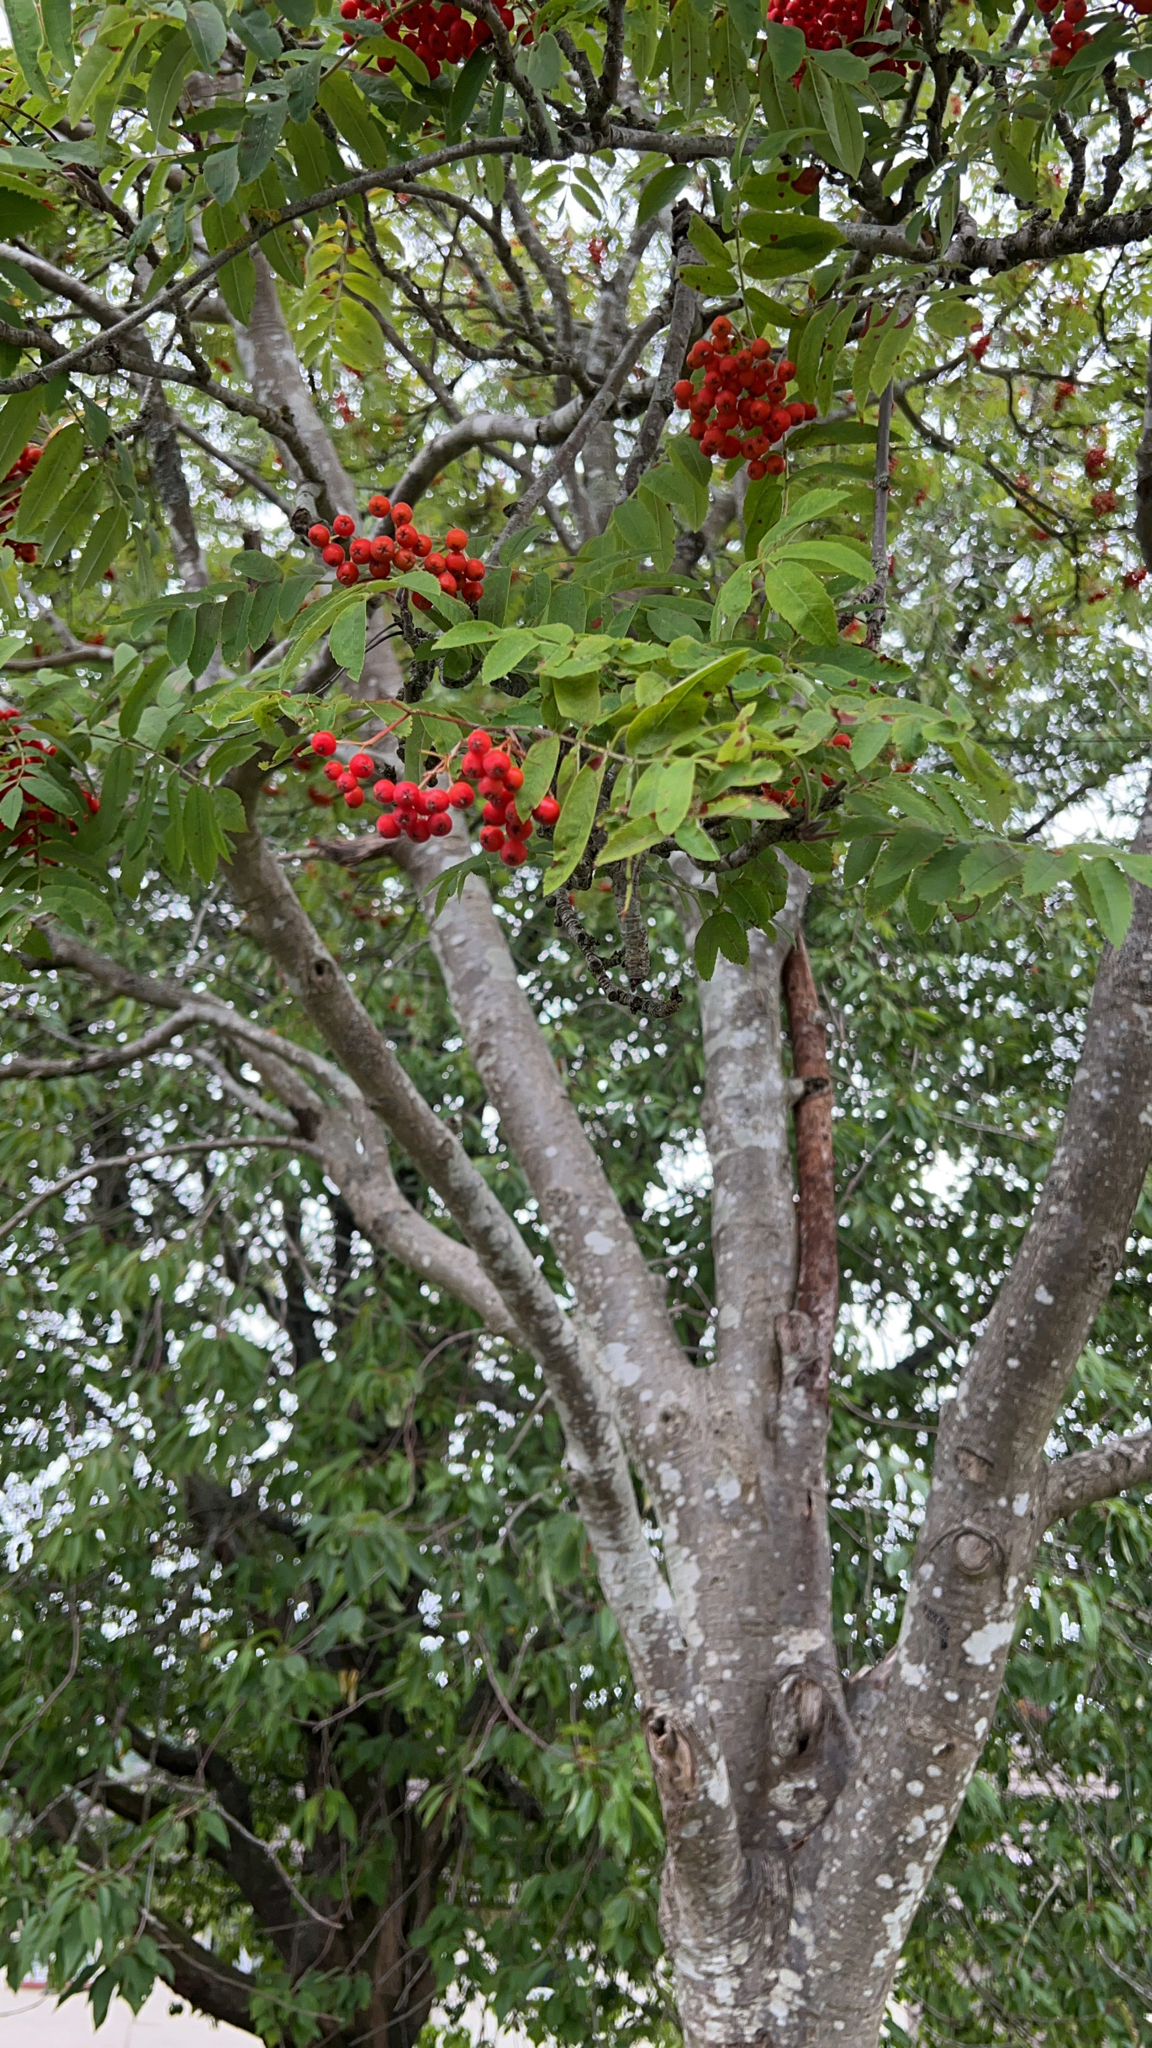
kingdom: Plantae
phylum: Tracheophyta
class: Magnoliopsida
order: Rosales
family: Rosaceae
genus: Sorbus
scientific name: Sorbus aucuparia
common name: Rowan
